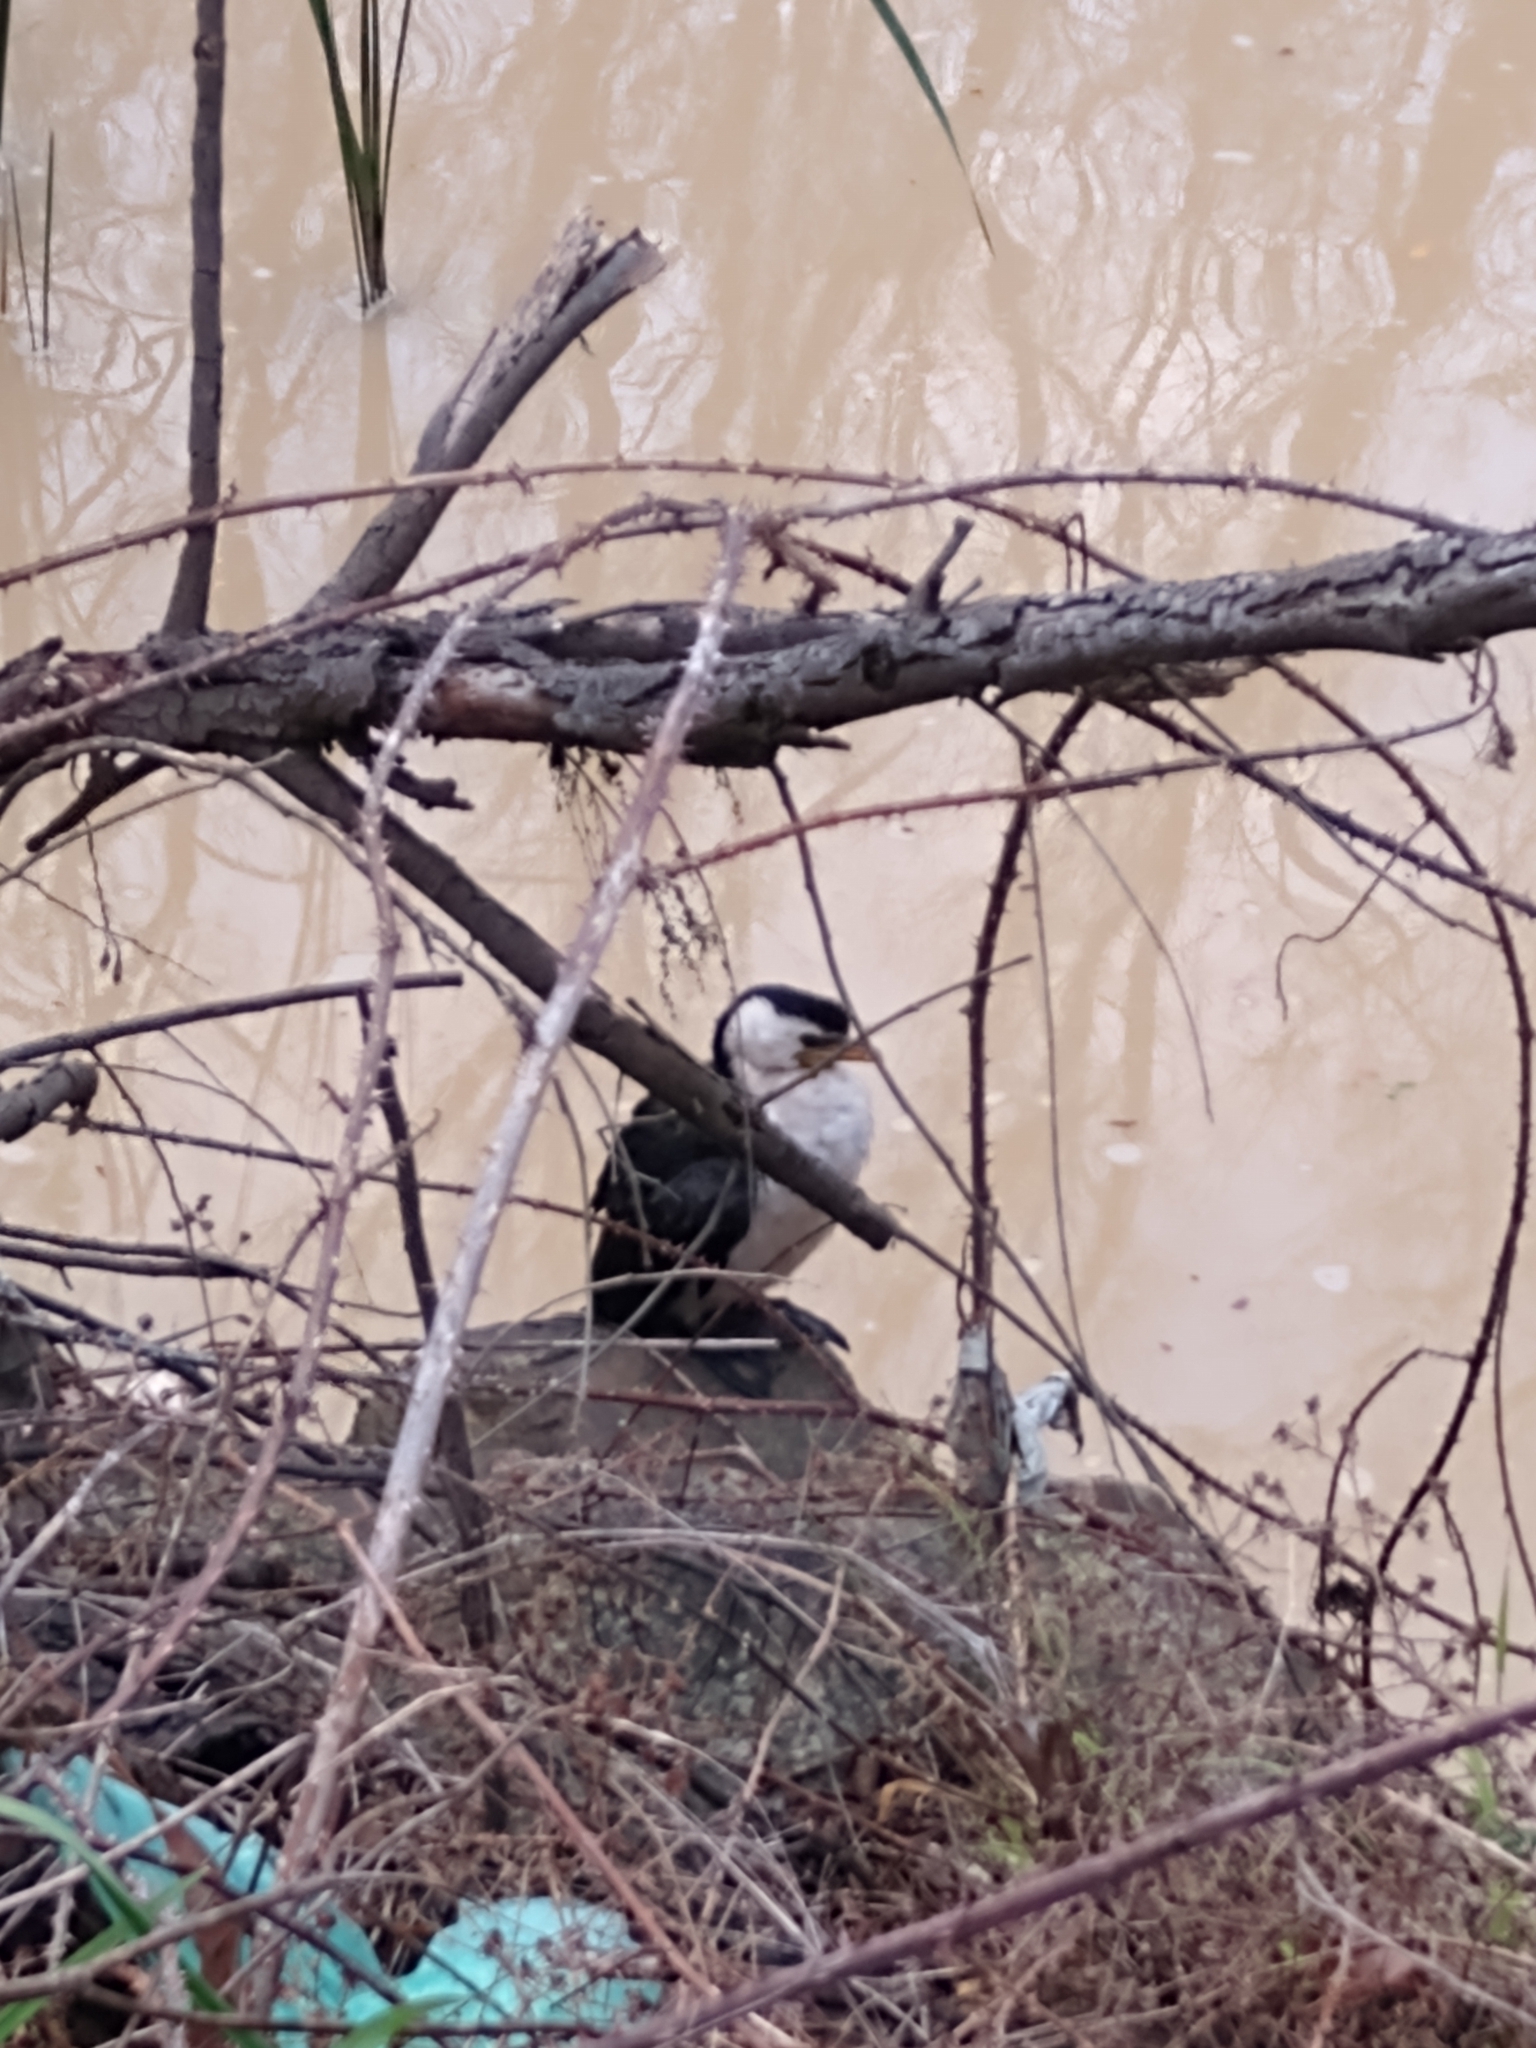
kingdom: Animalia
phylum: Chordata
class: Aves
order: Suliformes
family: Phalacrocoracidae
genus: Microcarbo
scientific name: Microcarbo melanoleucos
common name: Little pied cormorant
